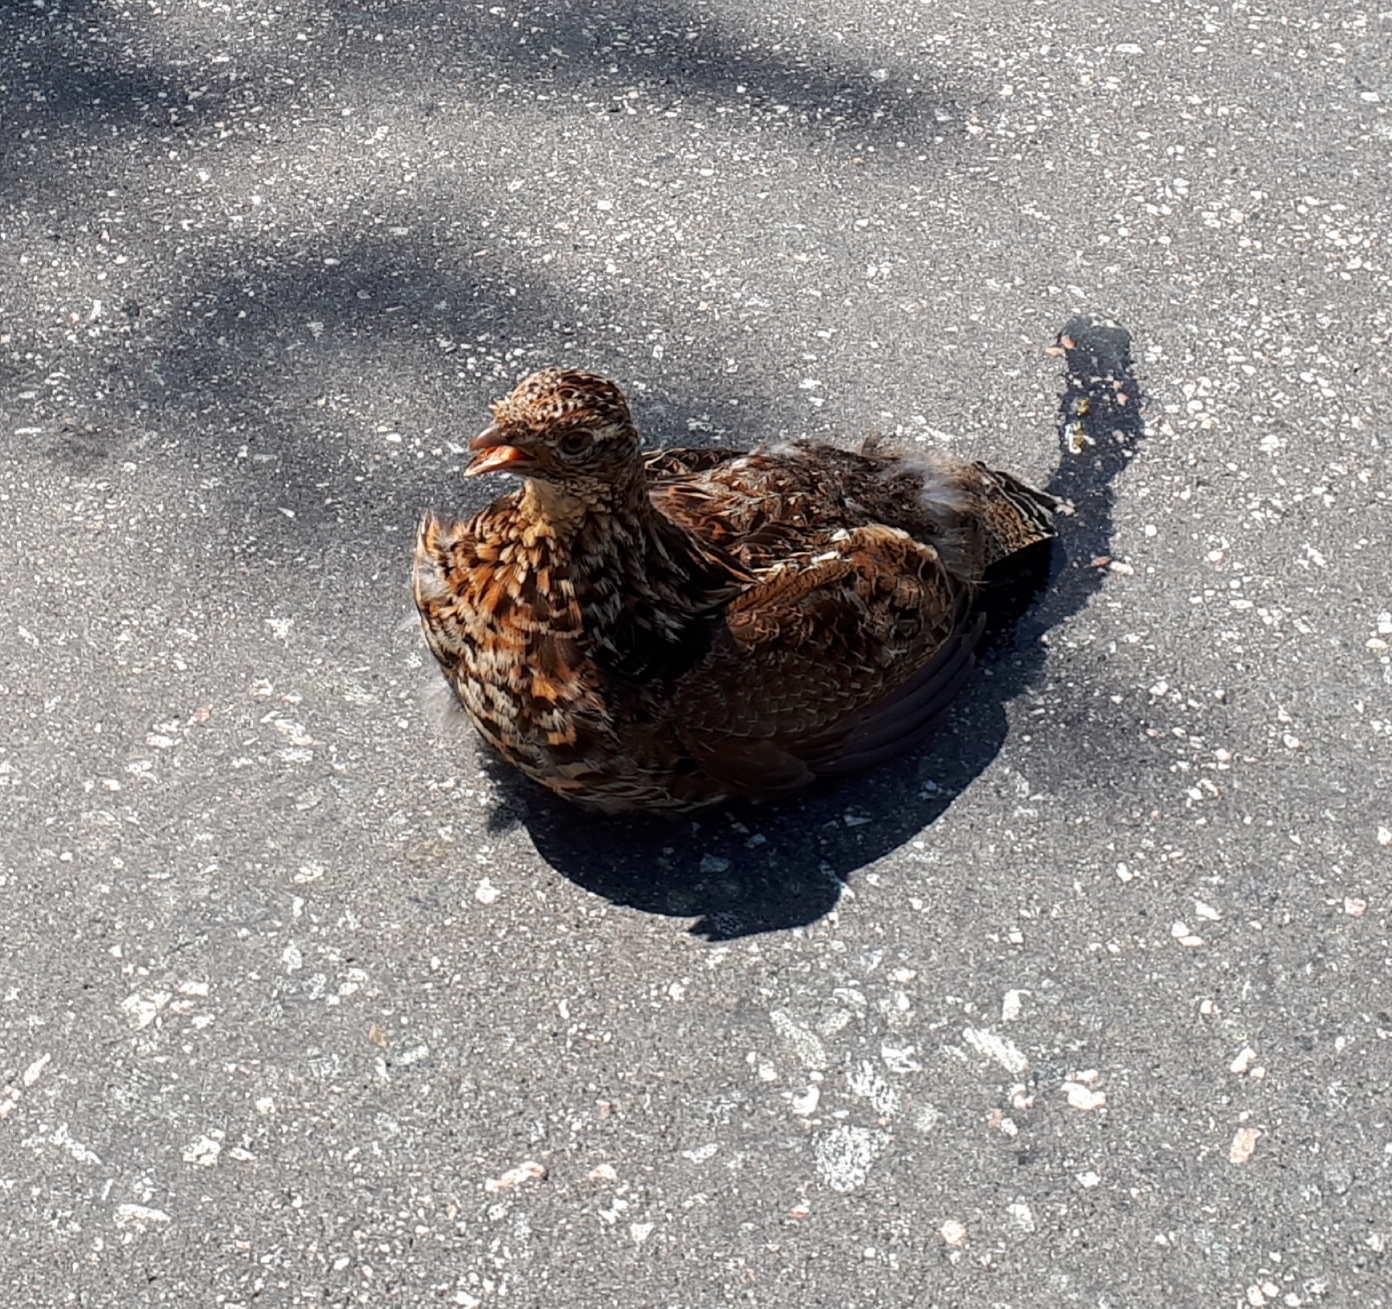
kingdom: Animalia
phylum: Chordata
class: Aves
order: Galliformes
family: Phasianidae
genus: Bonasa
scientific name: Bonasa umbellus
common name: Ruffed grouse
